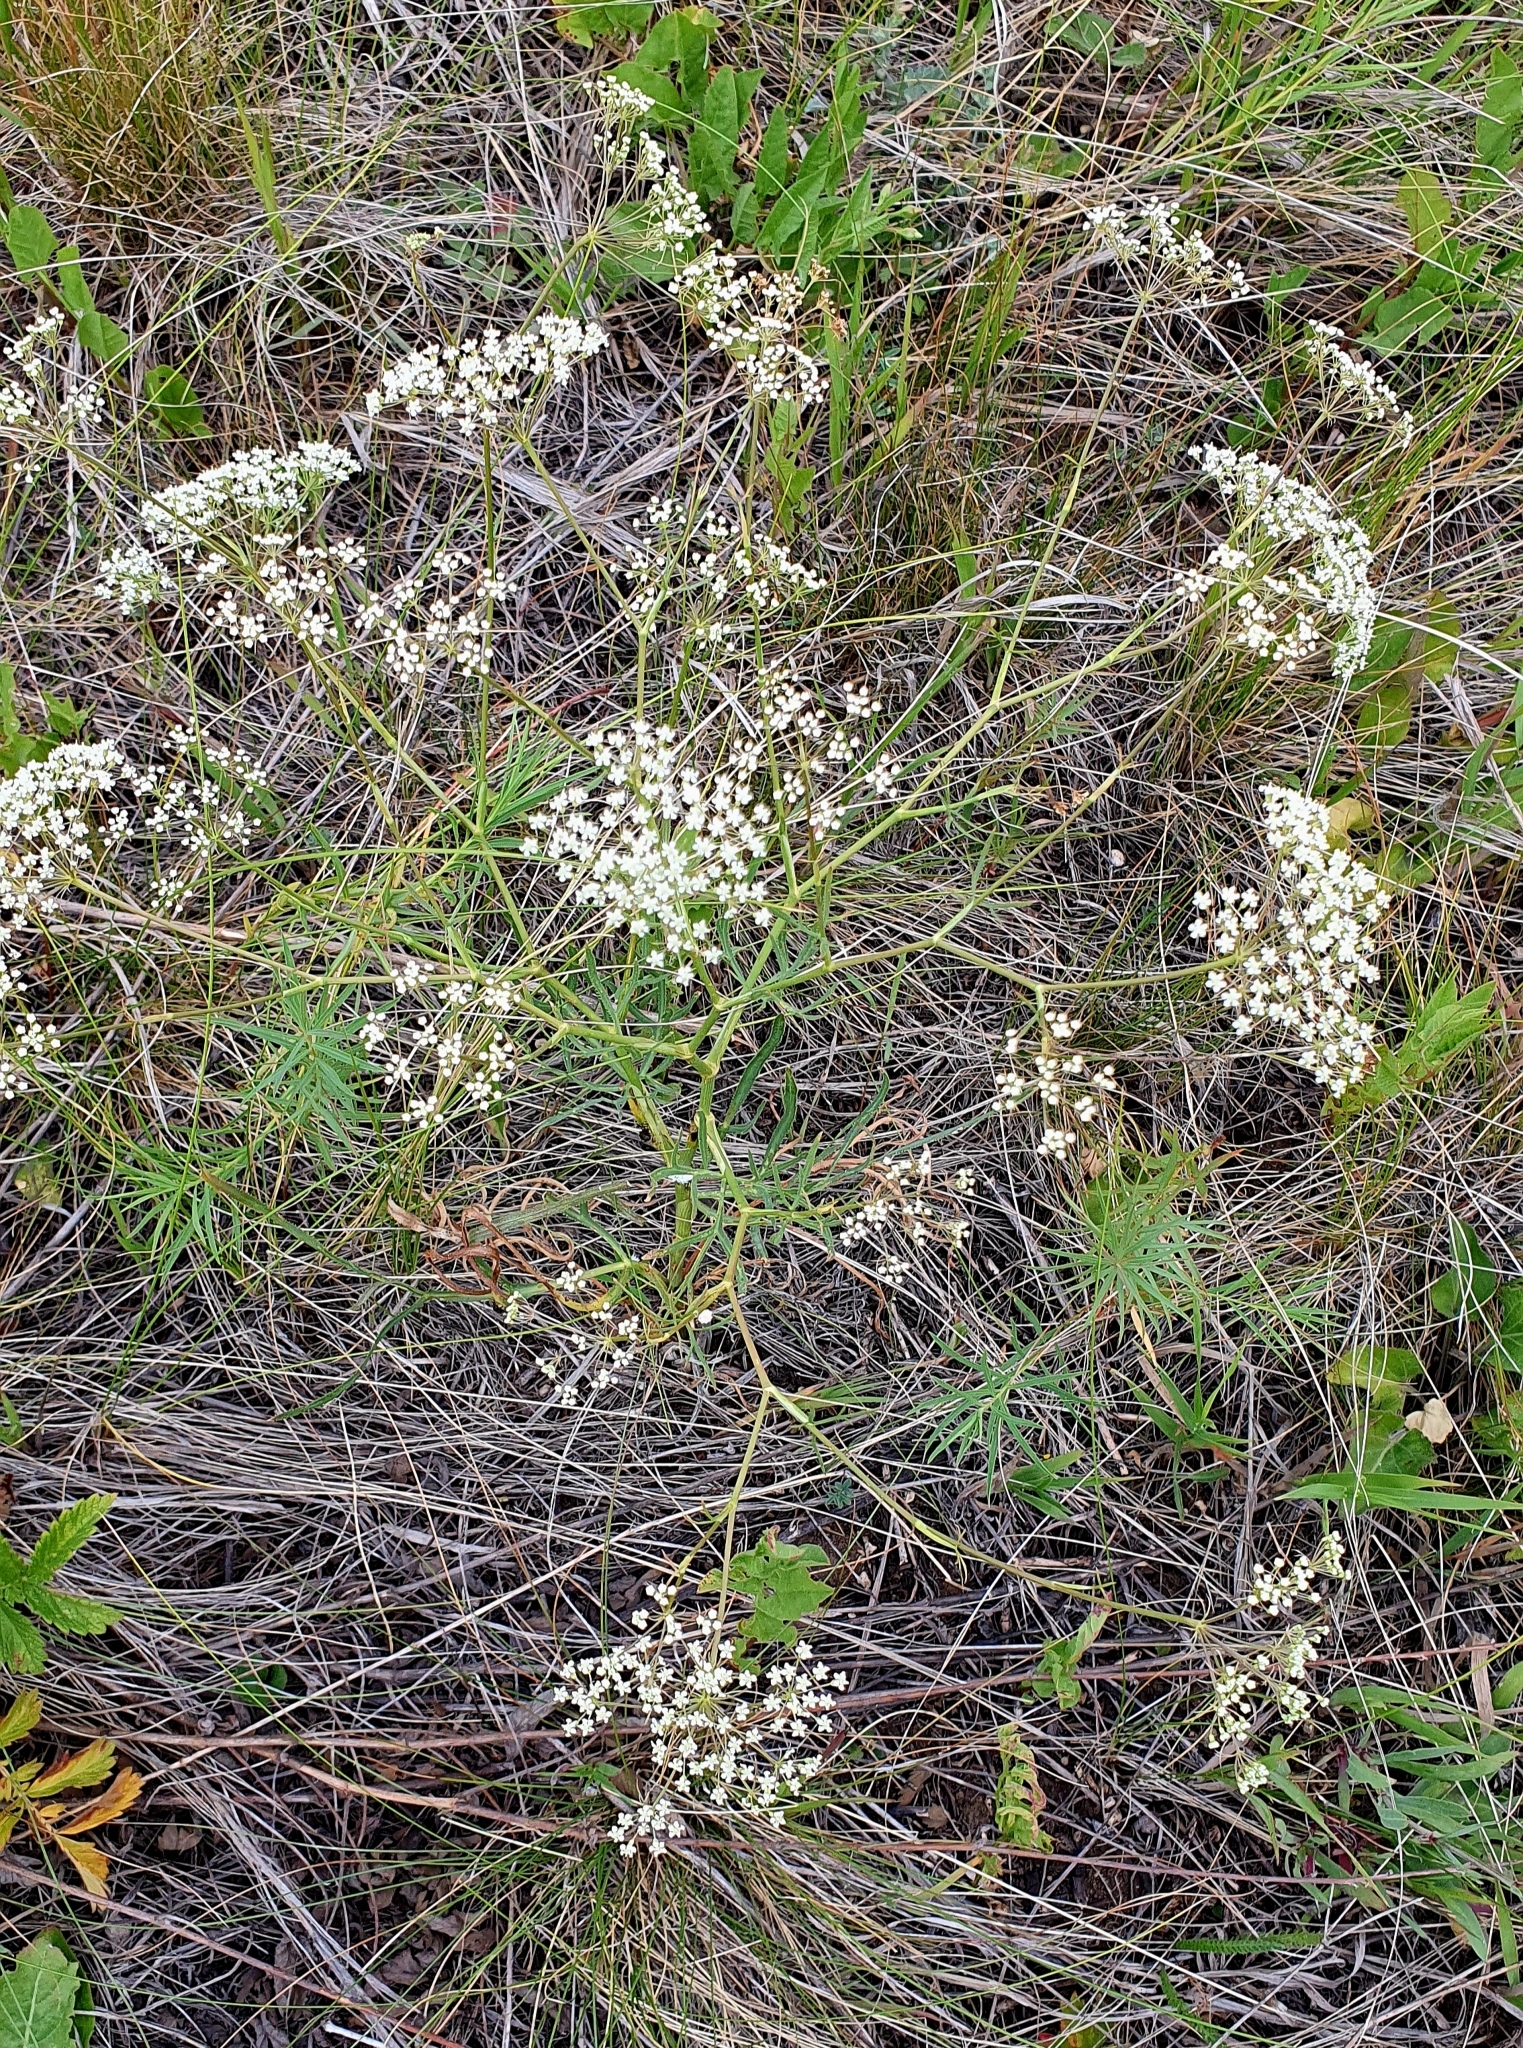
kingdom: Plantae
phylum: Tracheophyta
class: Magnoliopsida
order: Apiales
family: Apiaceae
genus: Falcaria
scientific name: Falcaria vulgaris
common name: Longleaf
